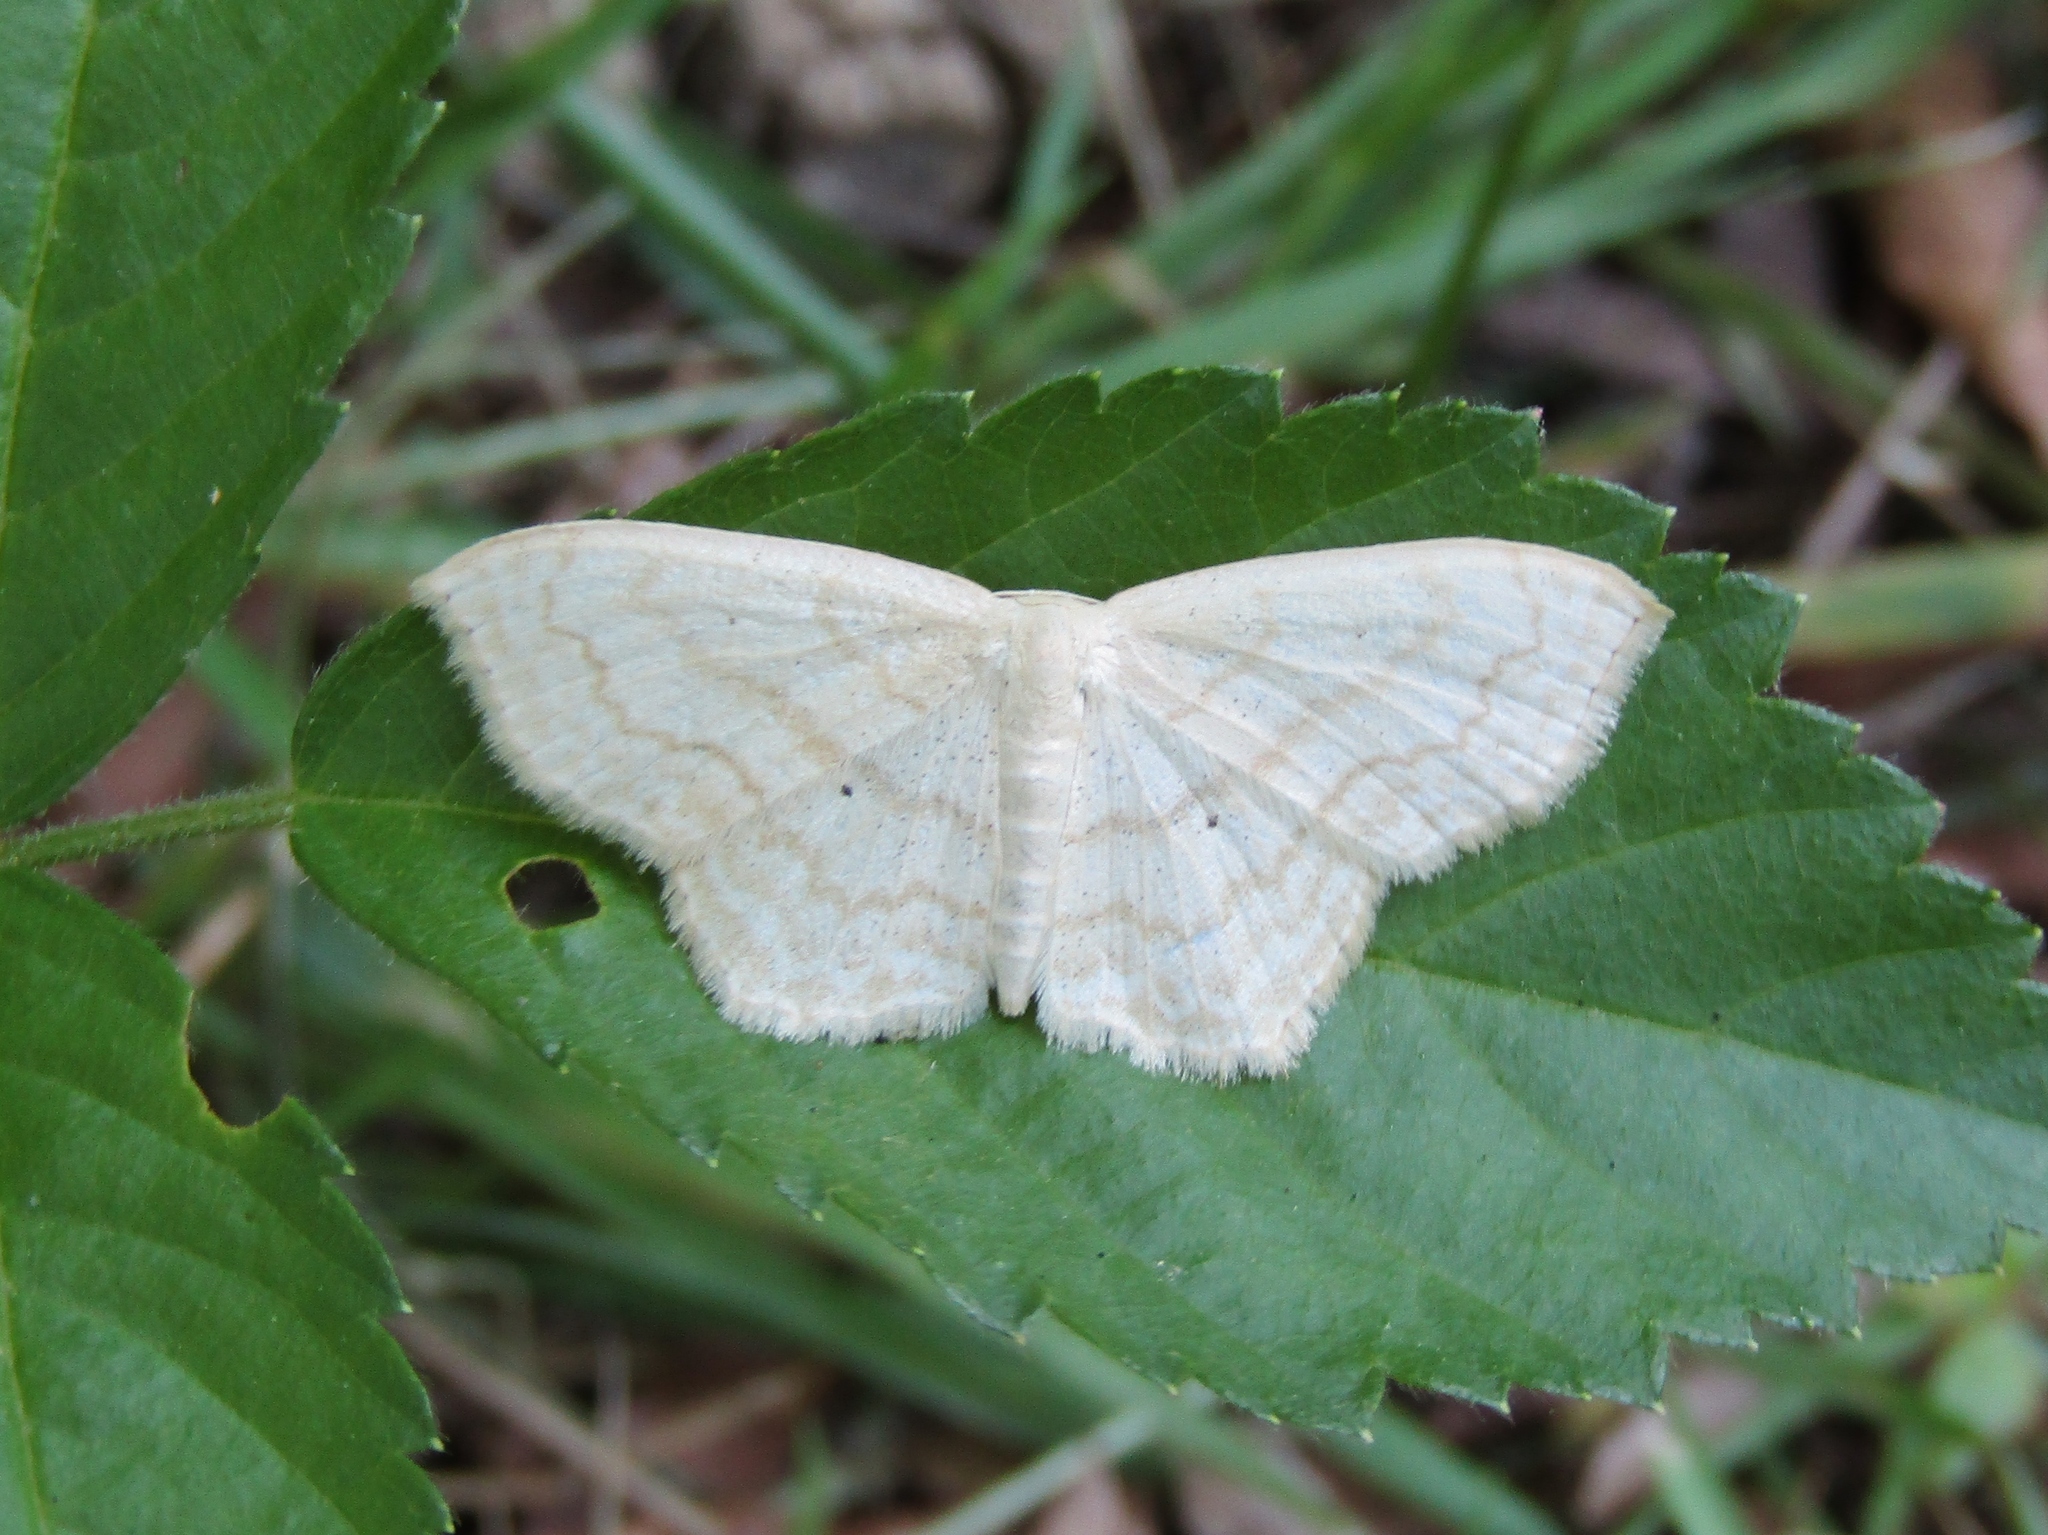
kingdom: Animalia
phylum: Arthropoda
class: Insecta
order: Lepidoptera
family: Geometridae
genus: Scopula
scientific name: Scopula limboundata
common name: Large lace border
